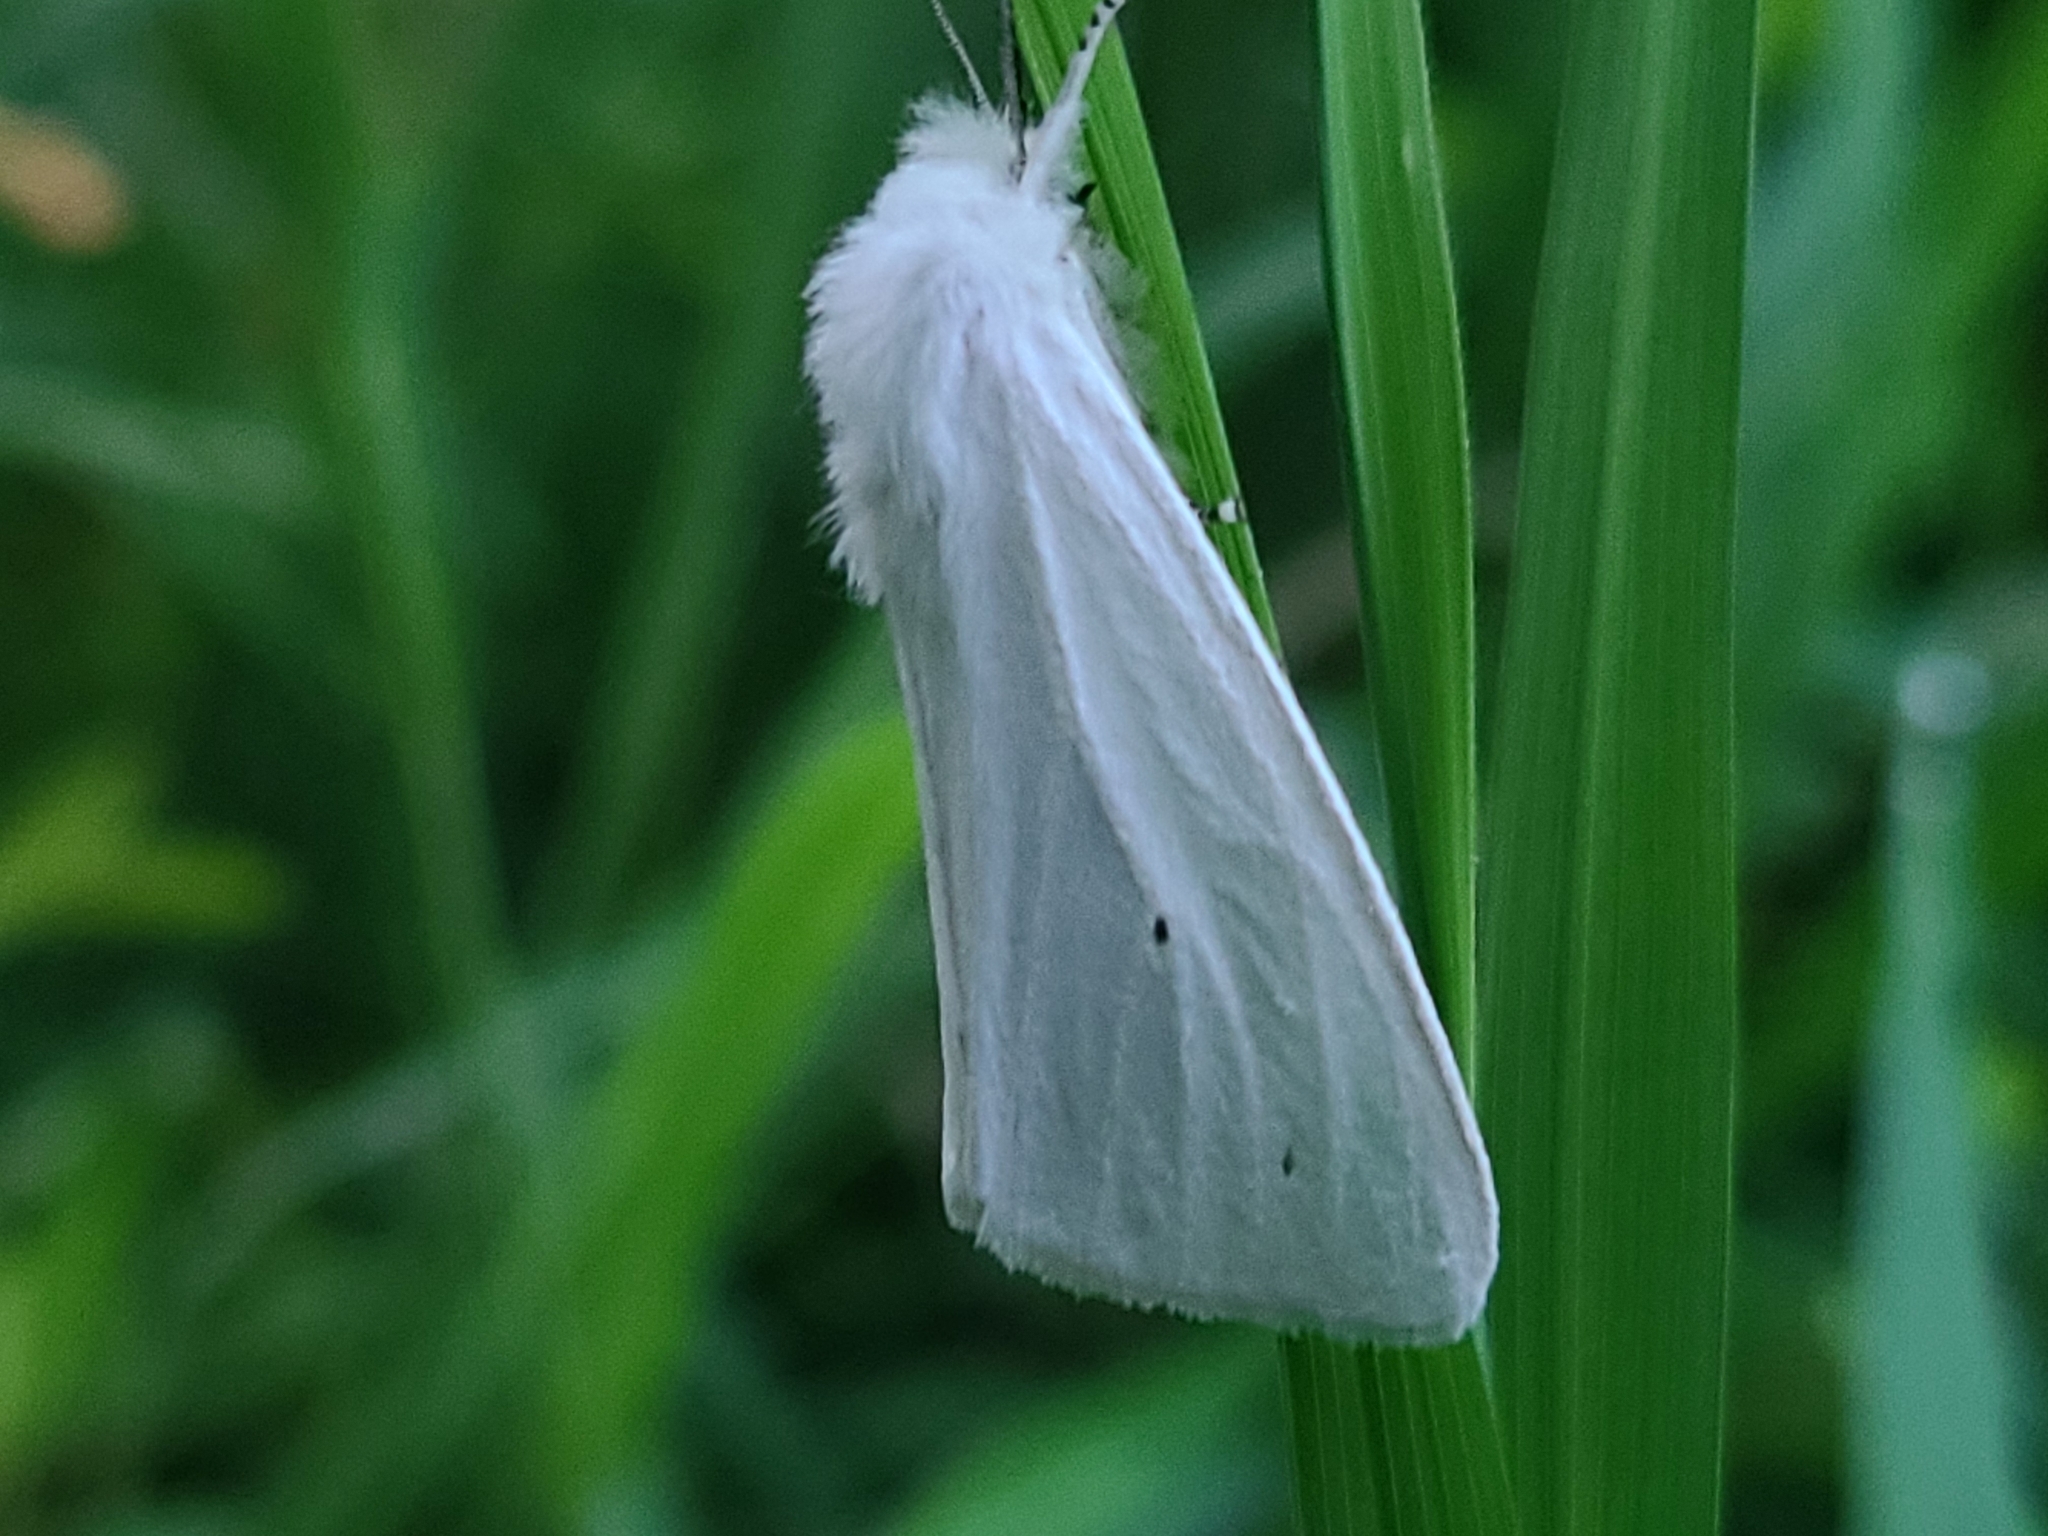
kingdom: Animalia
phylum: Arthropoda
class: Insecta
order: Lepidoptera
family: Erebidae
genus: Spilosoma
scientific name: Spilosoma virginica
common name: Virginia tiger moth
